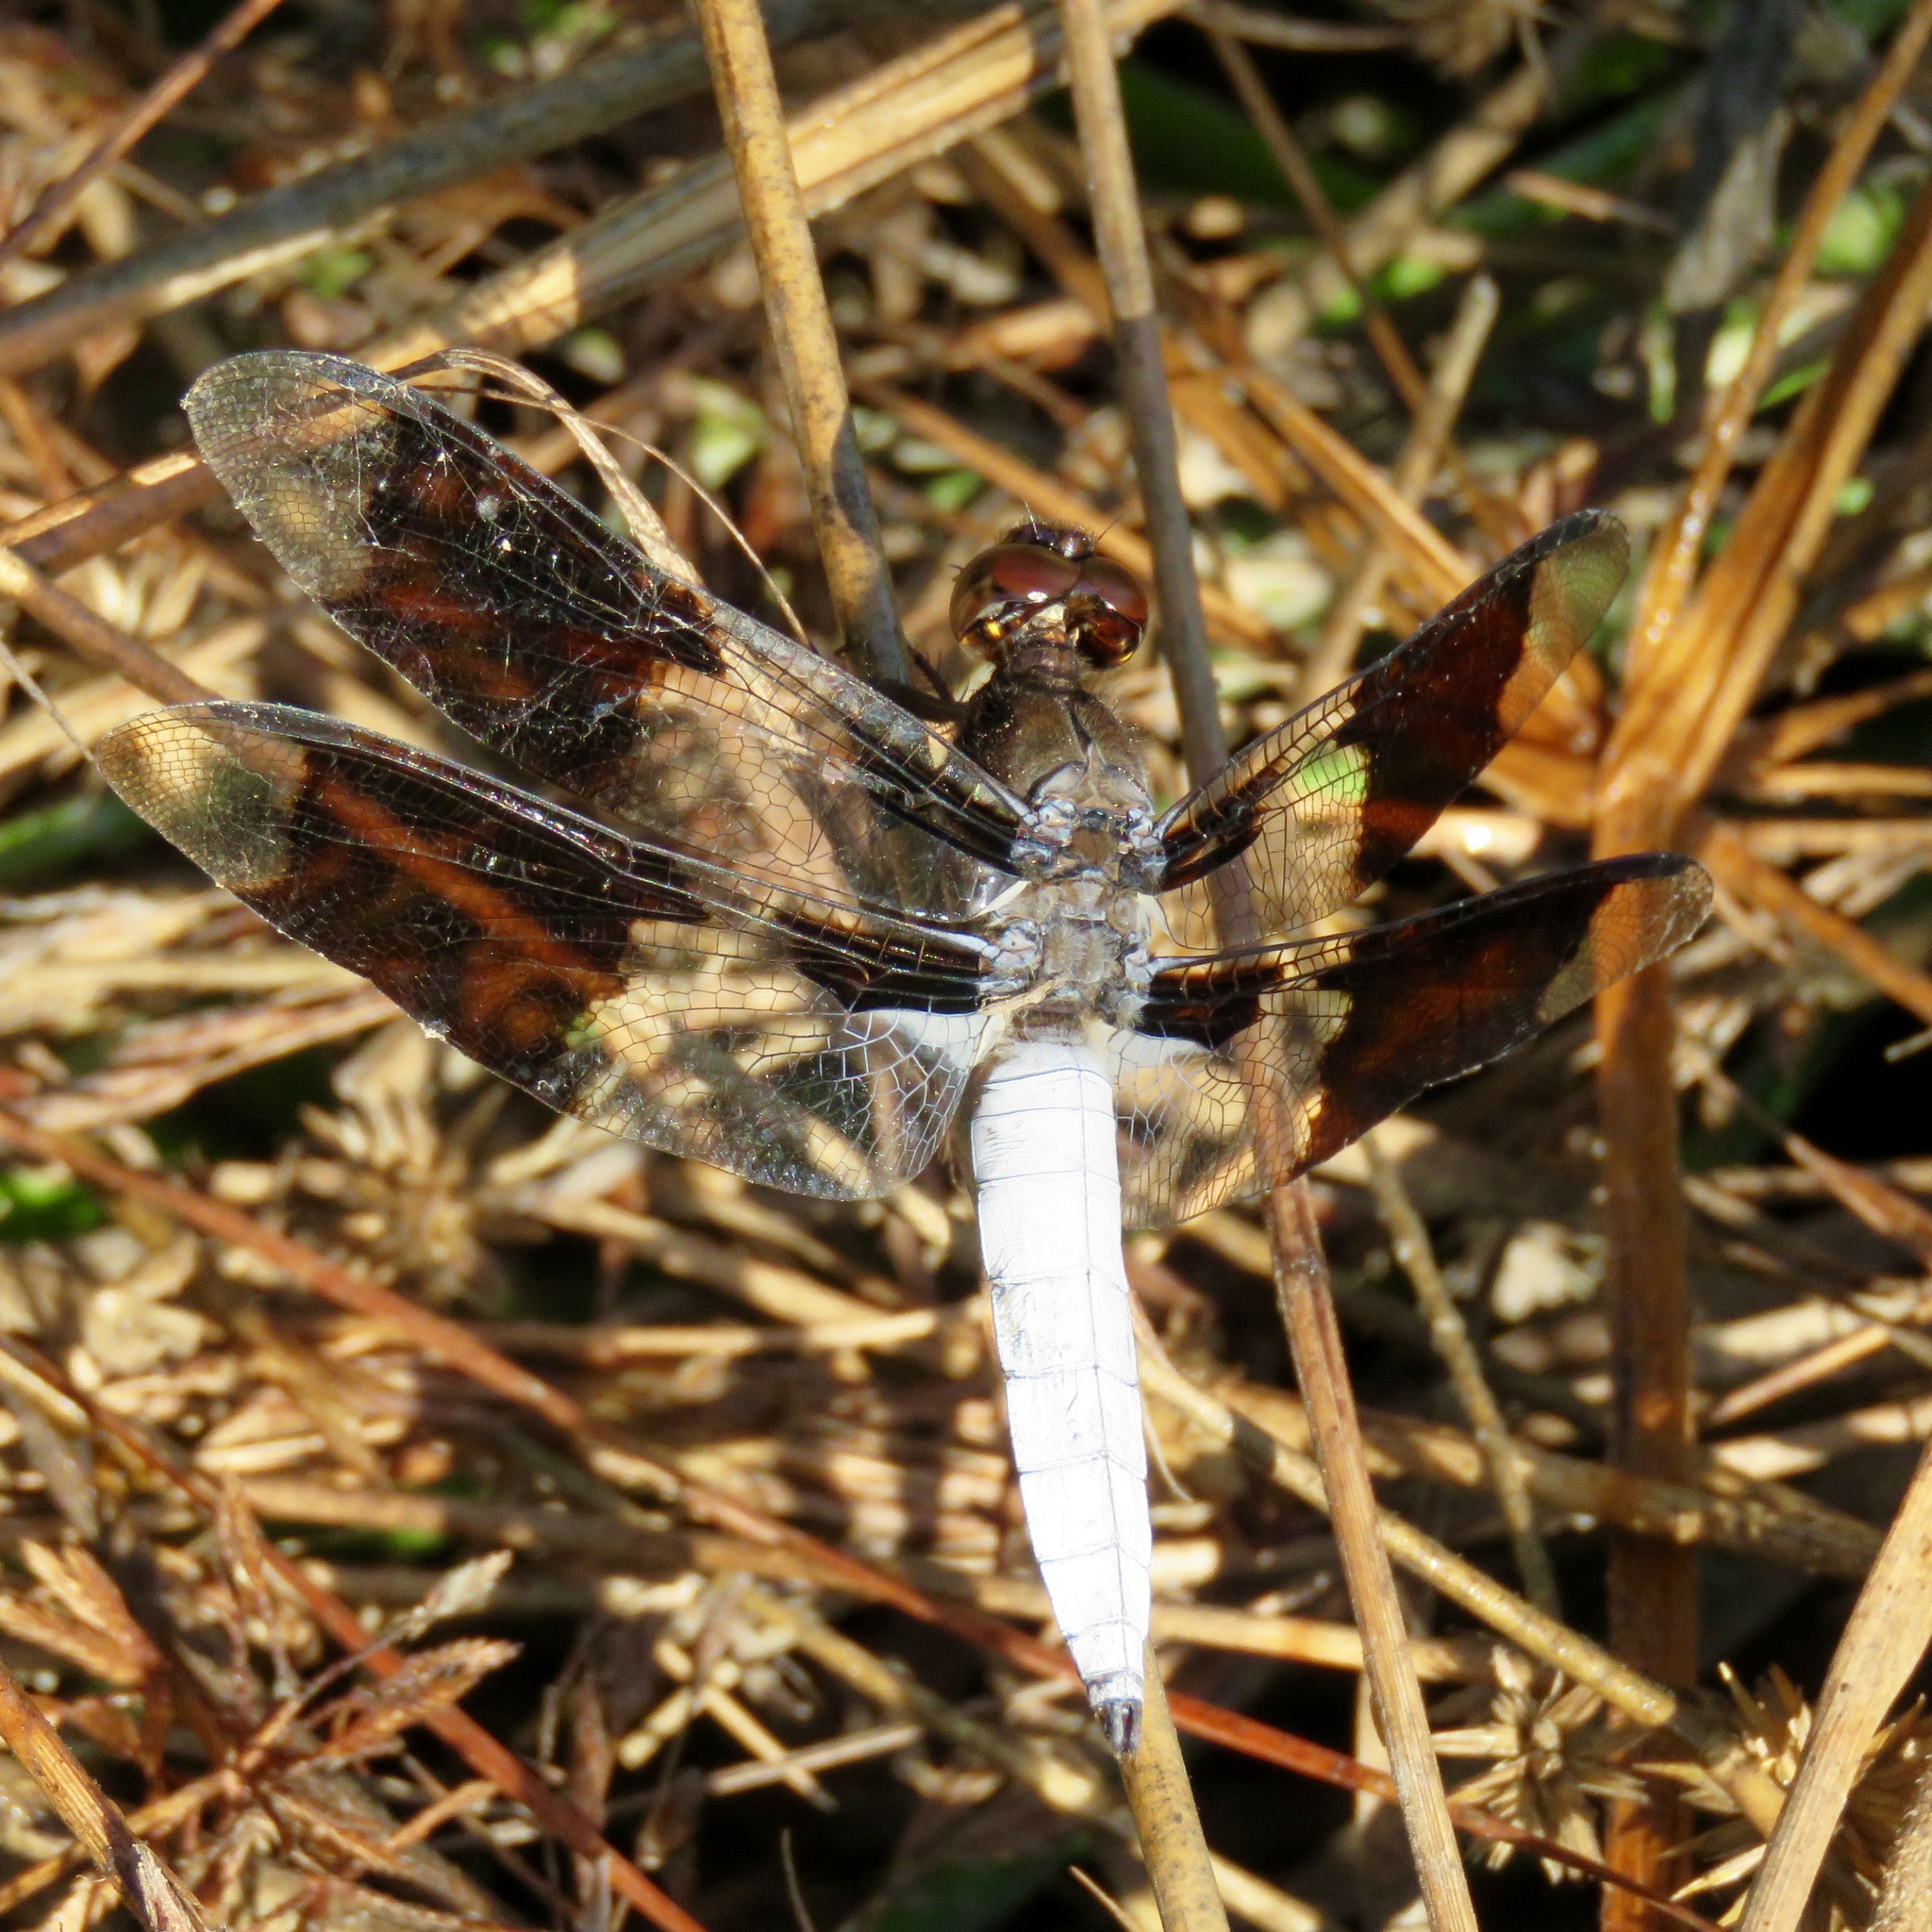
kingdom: Animalia
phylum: Arthropoda
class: Insecta
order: Odonata
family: Libellulidae
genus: Plathemis
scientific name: Plathemis lydia
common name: Common whitetail
